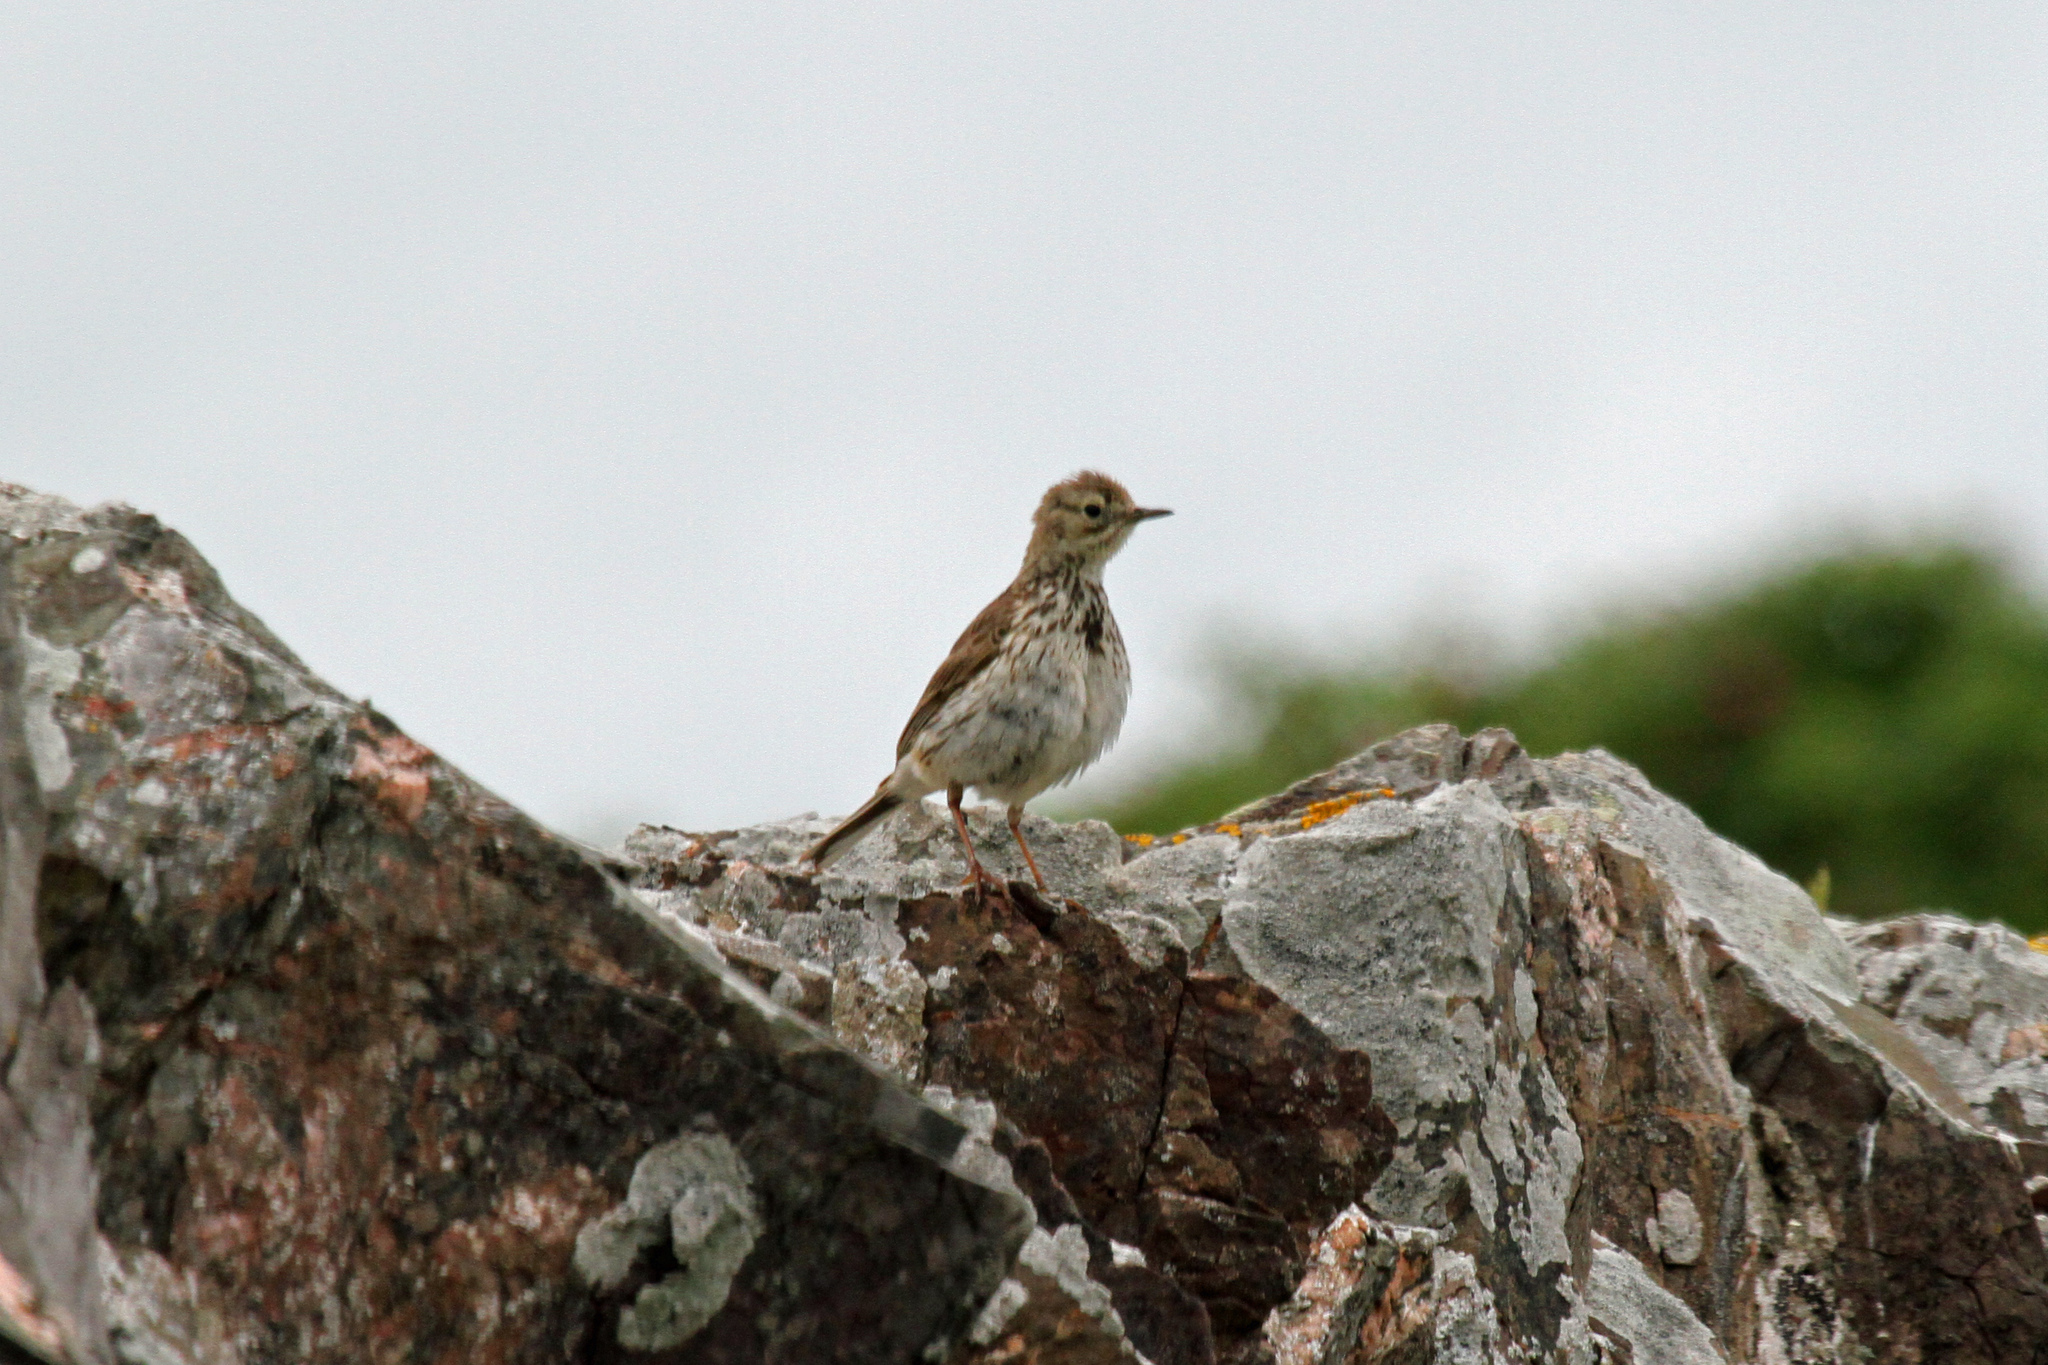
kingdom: Animalia
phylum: Chordata
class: Aves
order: Passeriformes
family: Motacillidae
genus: Anthus
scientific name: Anthus pratensis
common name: Meadow pipit
